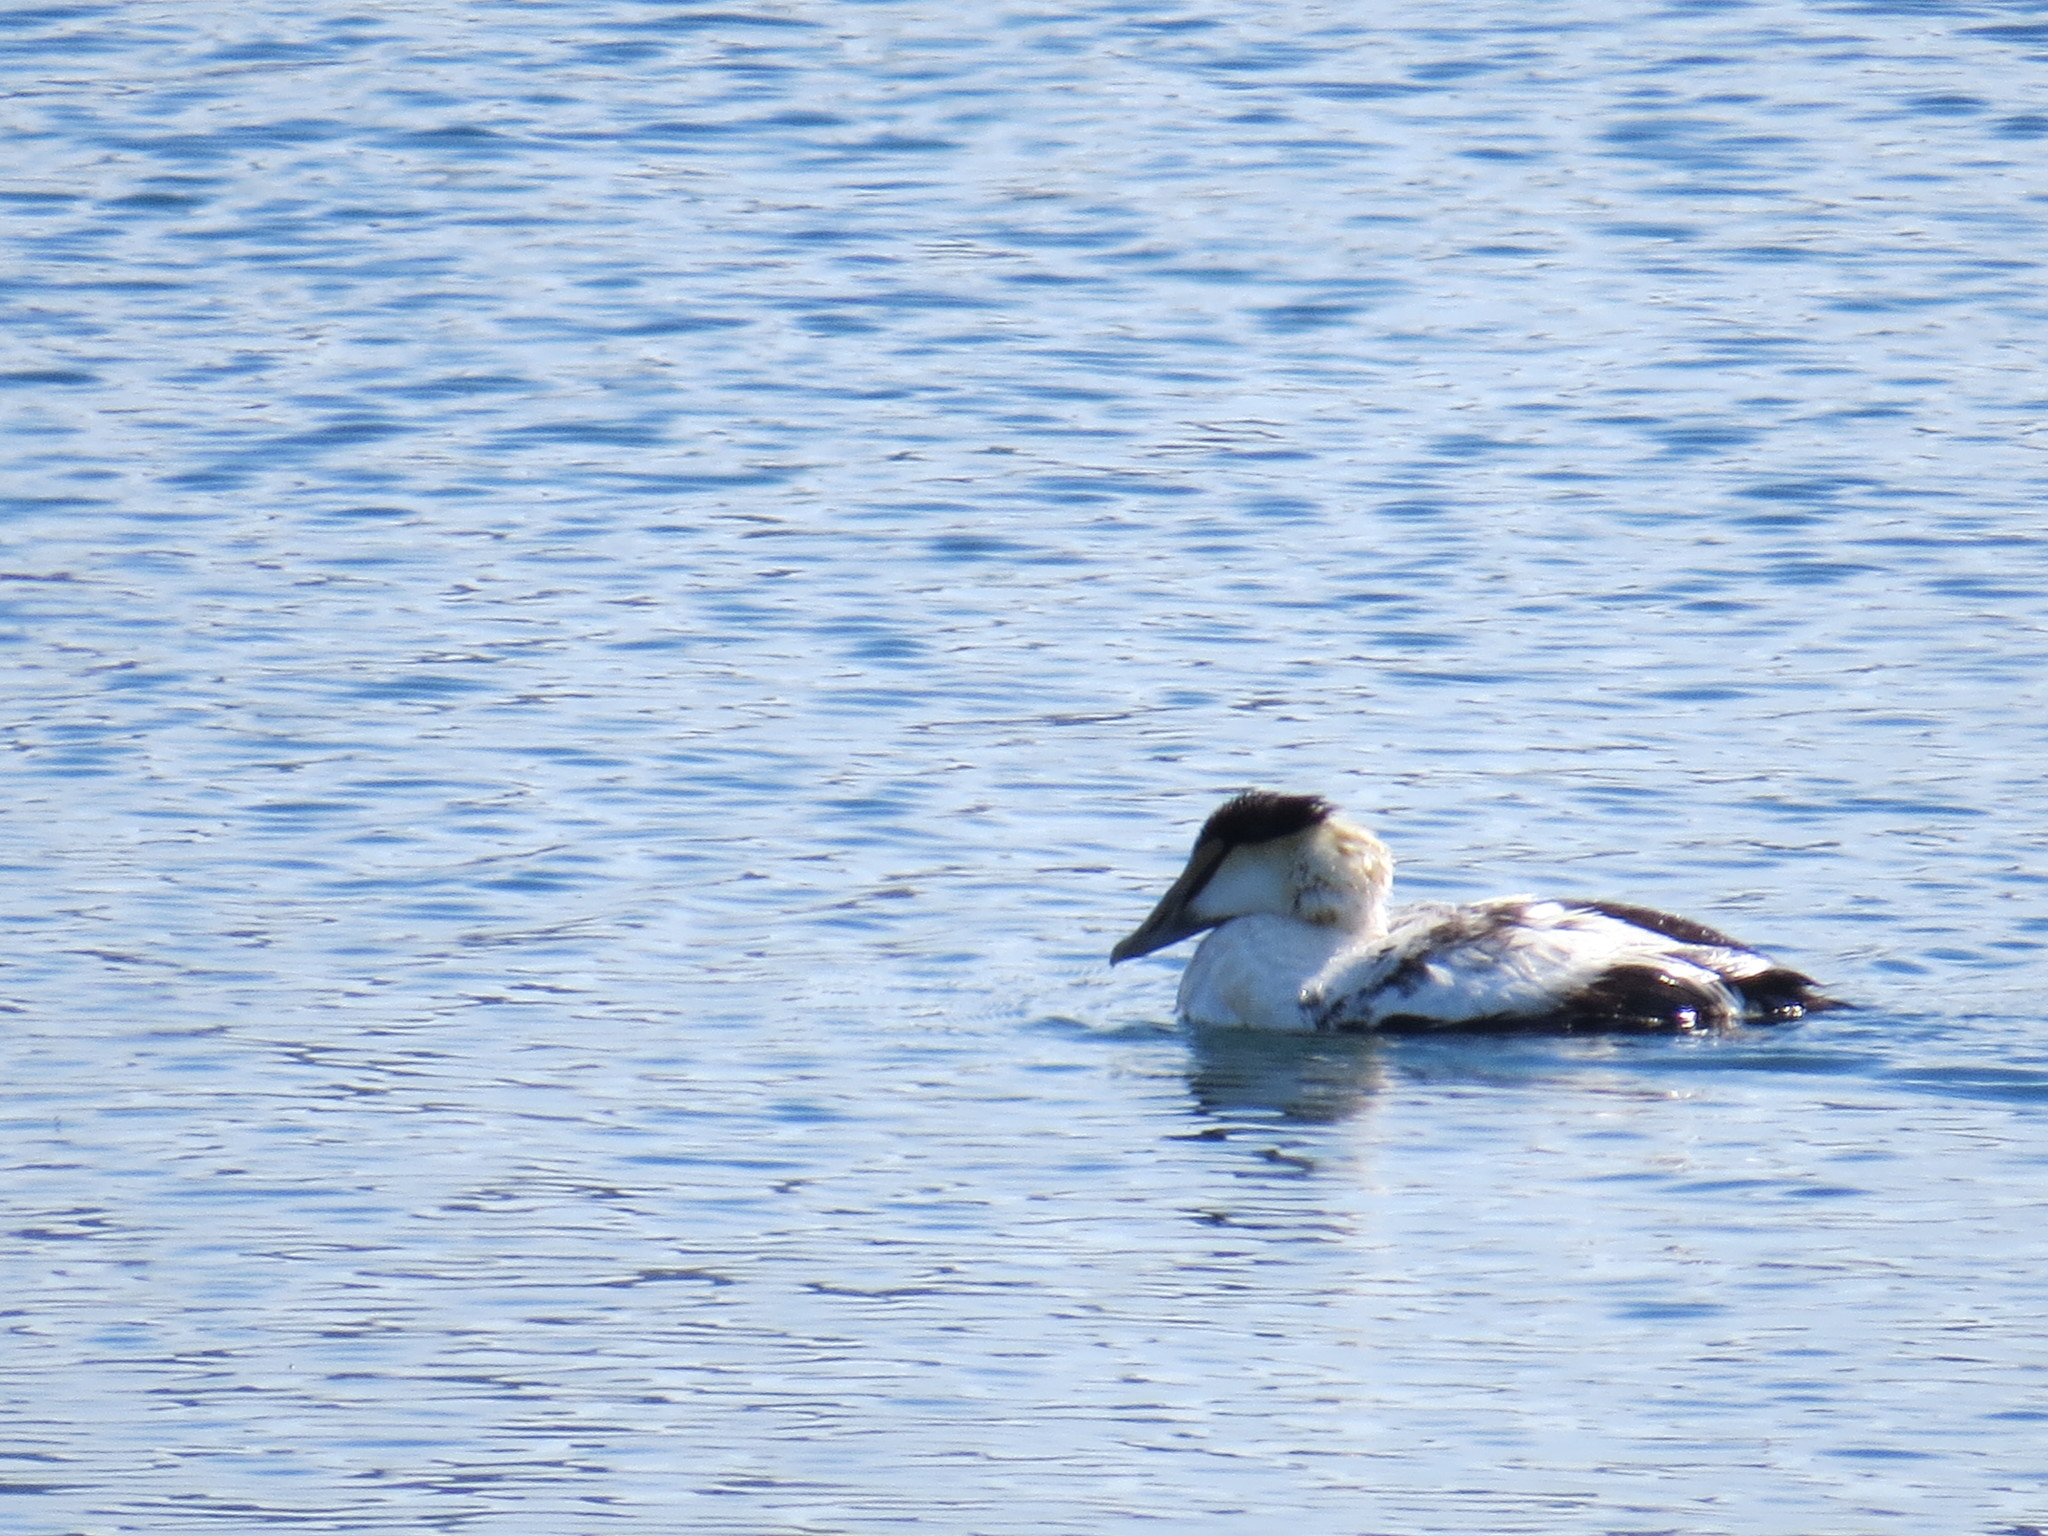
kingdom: Animalia
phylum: Chordata
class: Aves
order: Anseriformes
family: Anatidae
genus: Somateria
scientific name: Somateria mollissima
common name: Common eider
